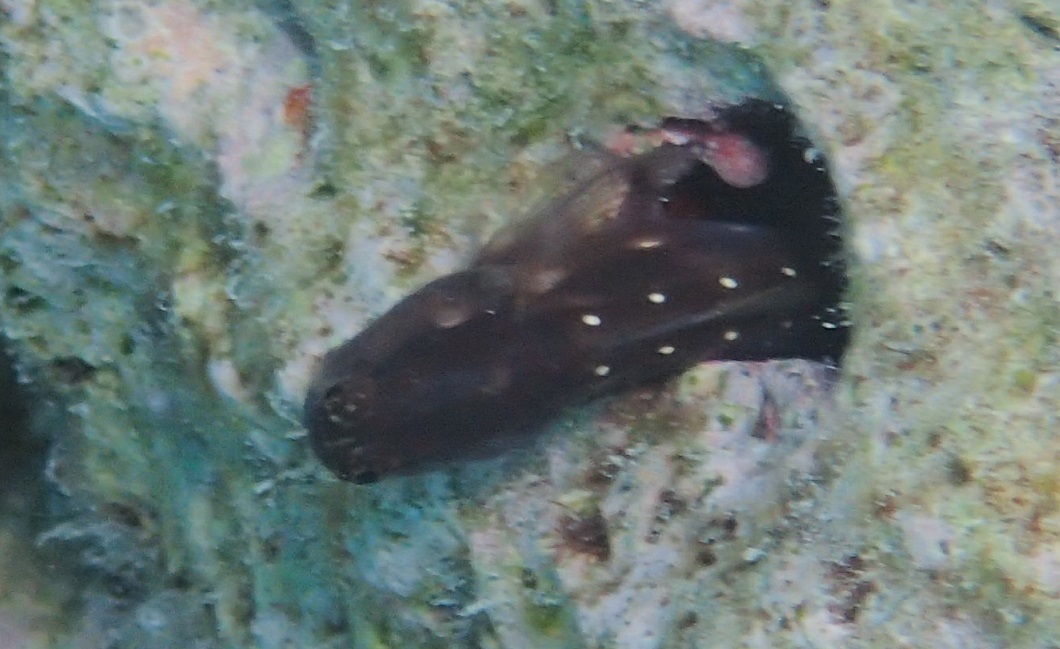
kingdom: Animalia
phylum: Chordata
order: Perciformes
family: Blenniidae
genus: Ecsenius
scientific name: Ecsenius mandibularis
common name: Queensland blenny
